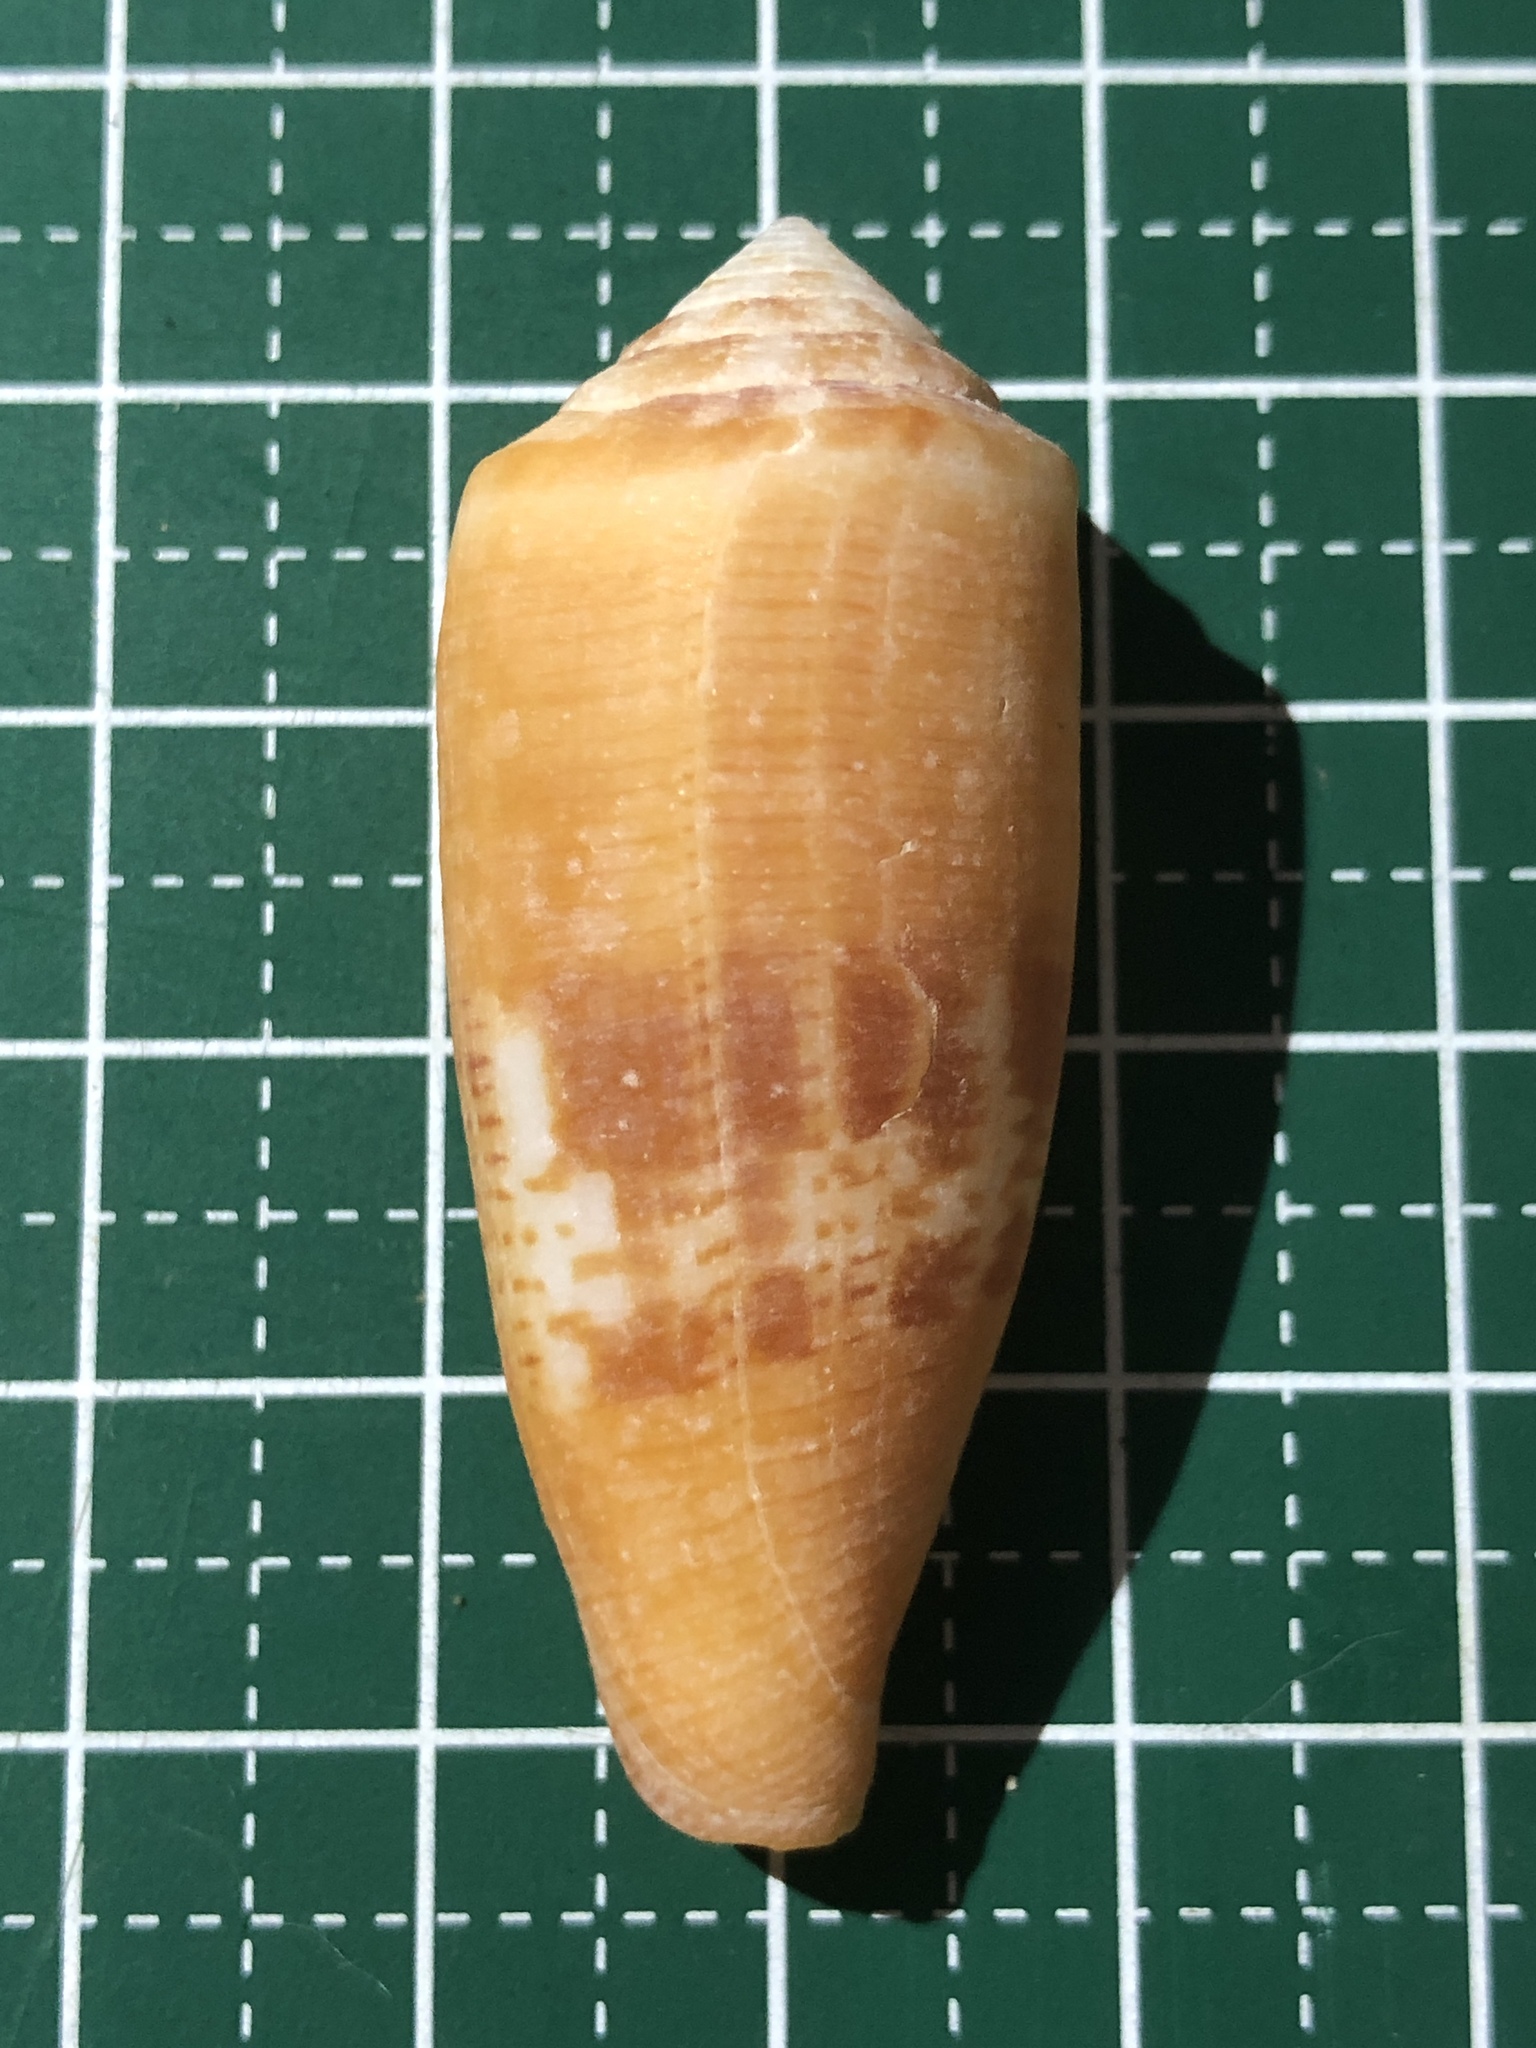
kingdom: Animalia
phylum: Mollusca
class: Gastropoda
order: Neogastropoda
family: Conidae
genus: Conus
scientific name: Conus coccineus
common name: Berry cone
